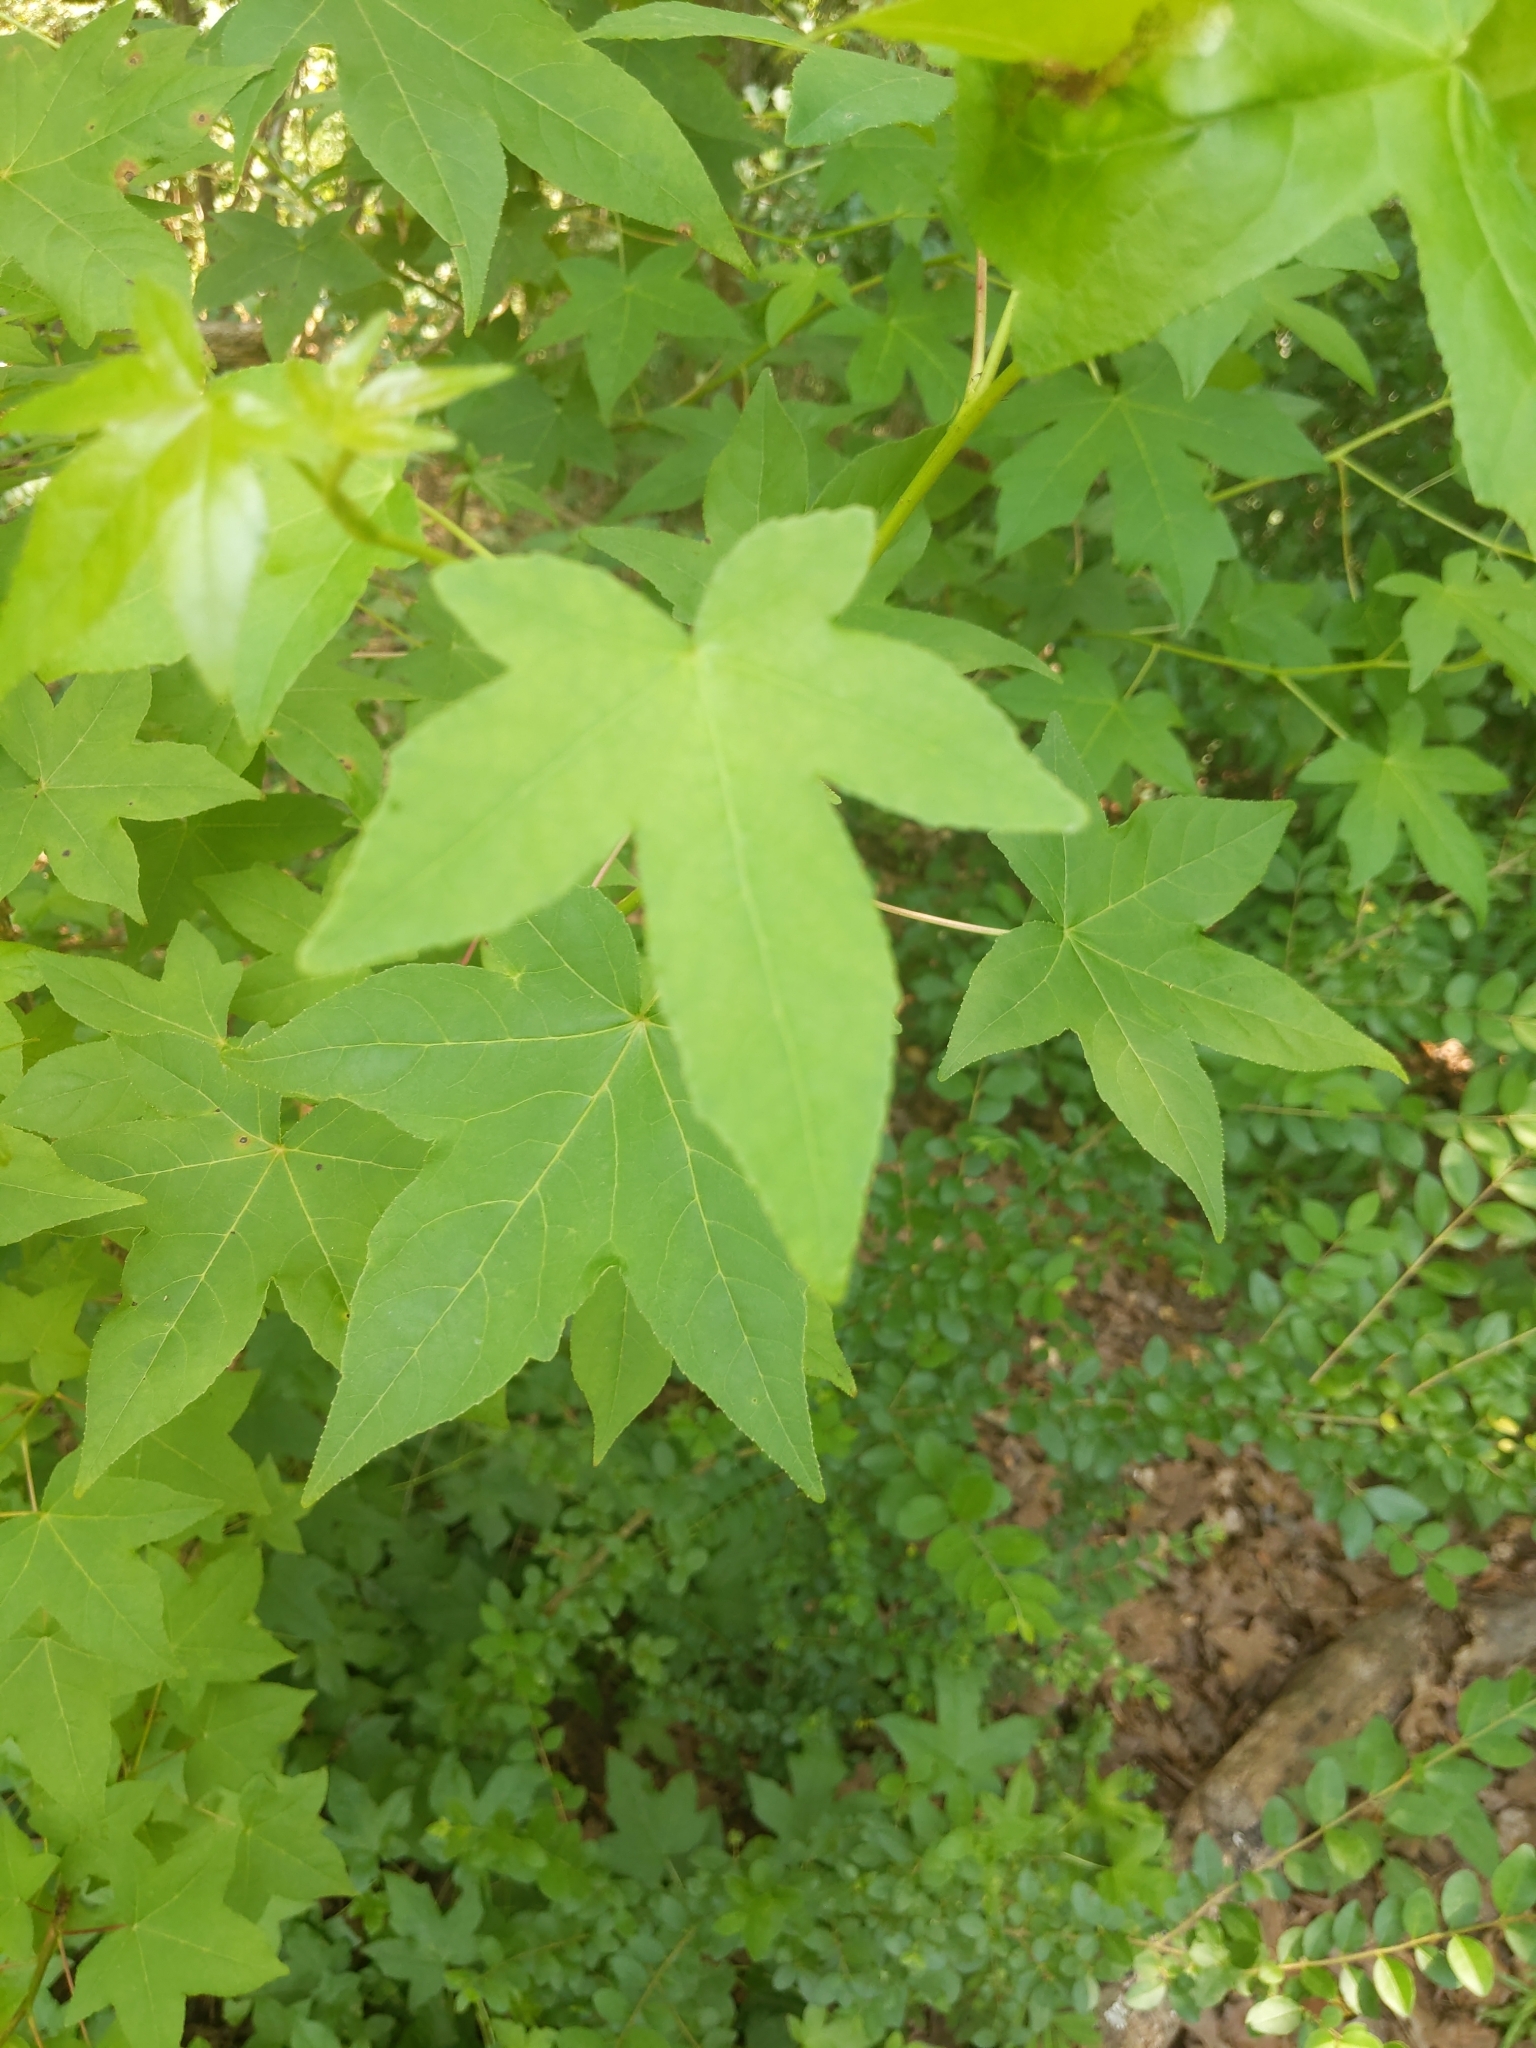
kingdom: Plantae
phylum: Tracheophyta
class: Magnoliopsida
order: Saxifragales
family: Altingiaceae
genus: Liquidambar
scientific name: Liquidambar styraciflua
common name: Sweet gum
